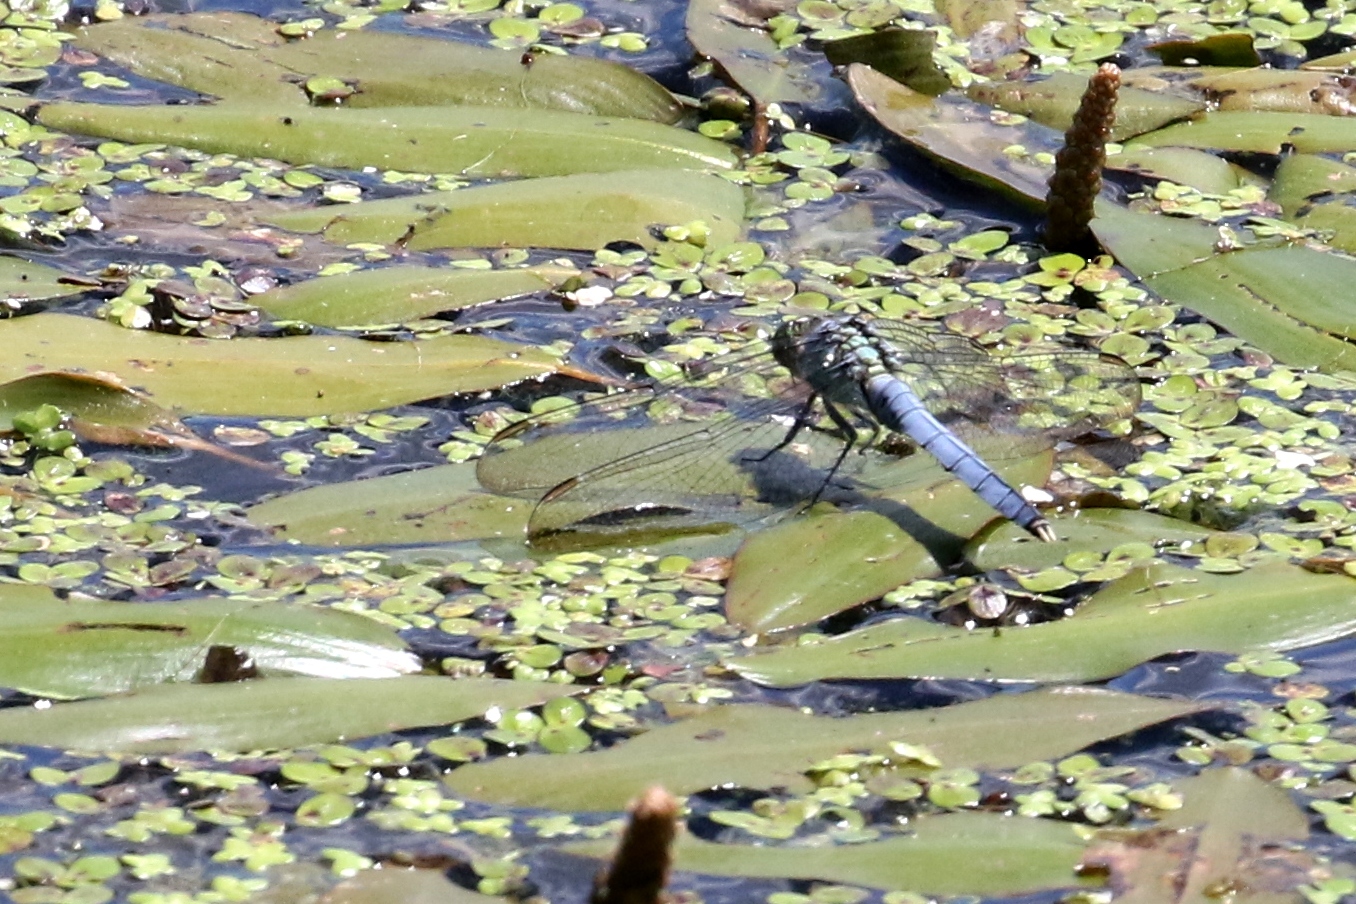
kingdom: Animalia
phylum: Arthropoda
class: Insecta
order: Odonata
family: Libellulidae
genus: Erythemis
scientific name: Erythemis simplicicollis
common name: Eastern pondhawk
